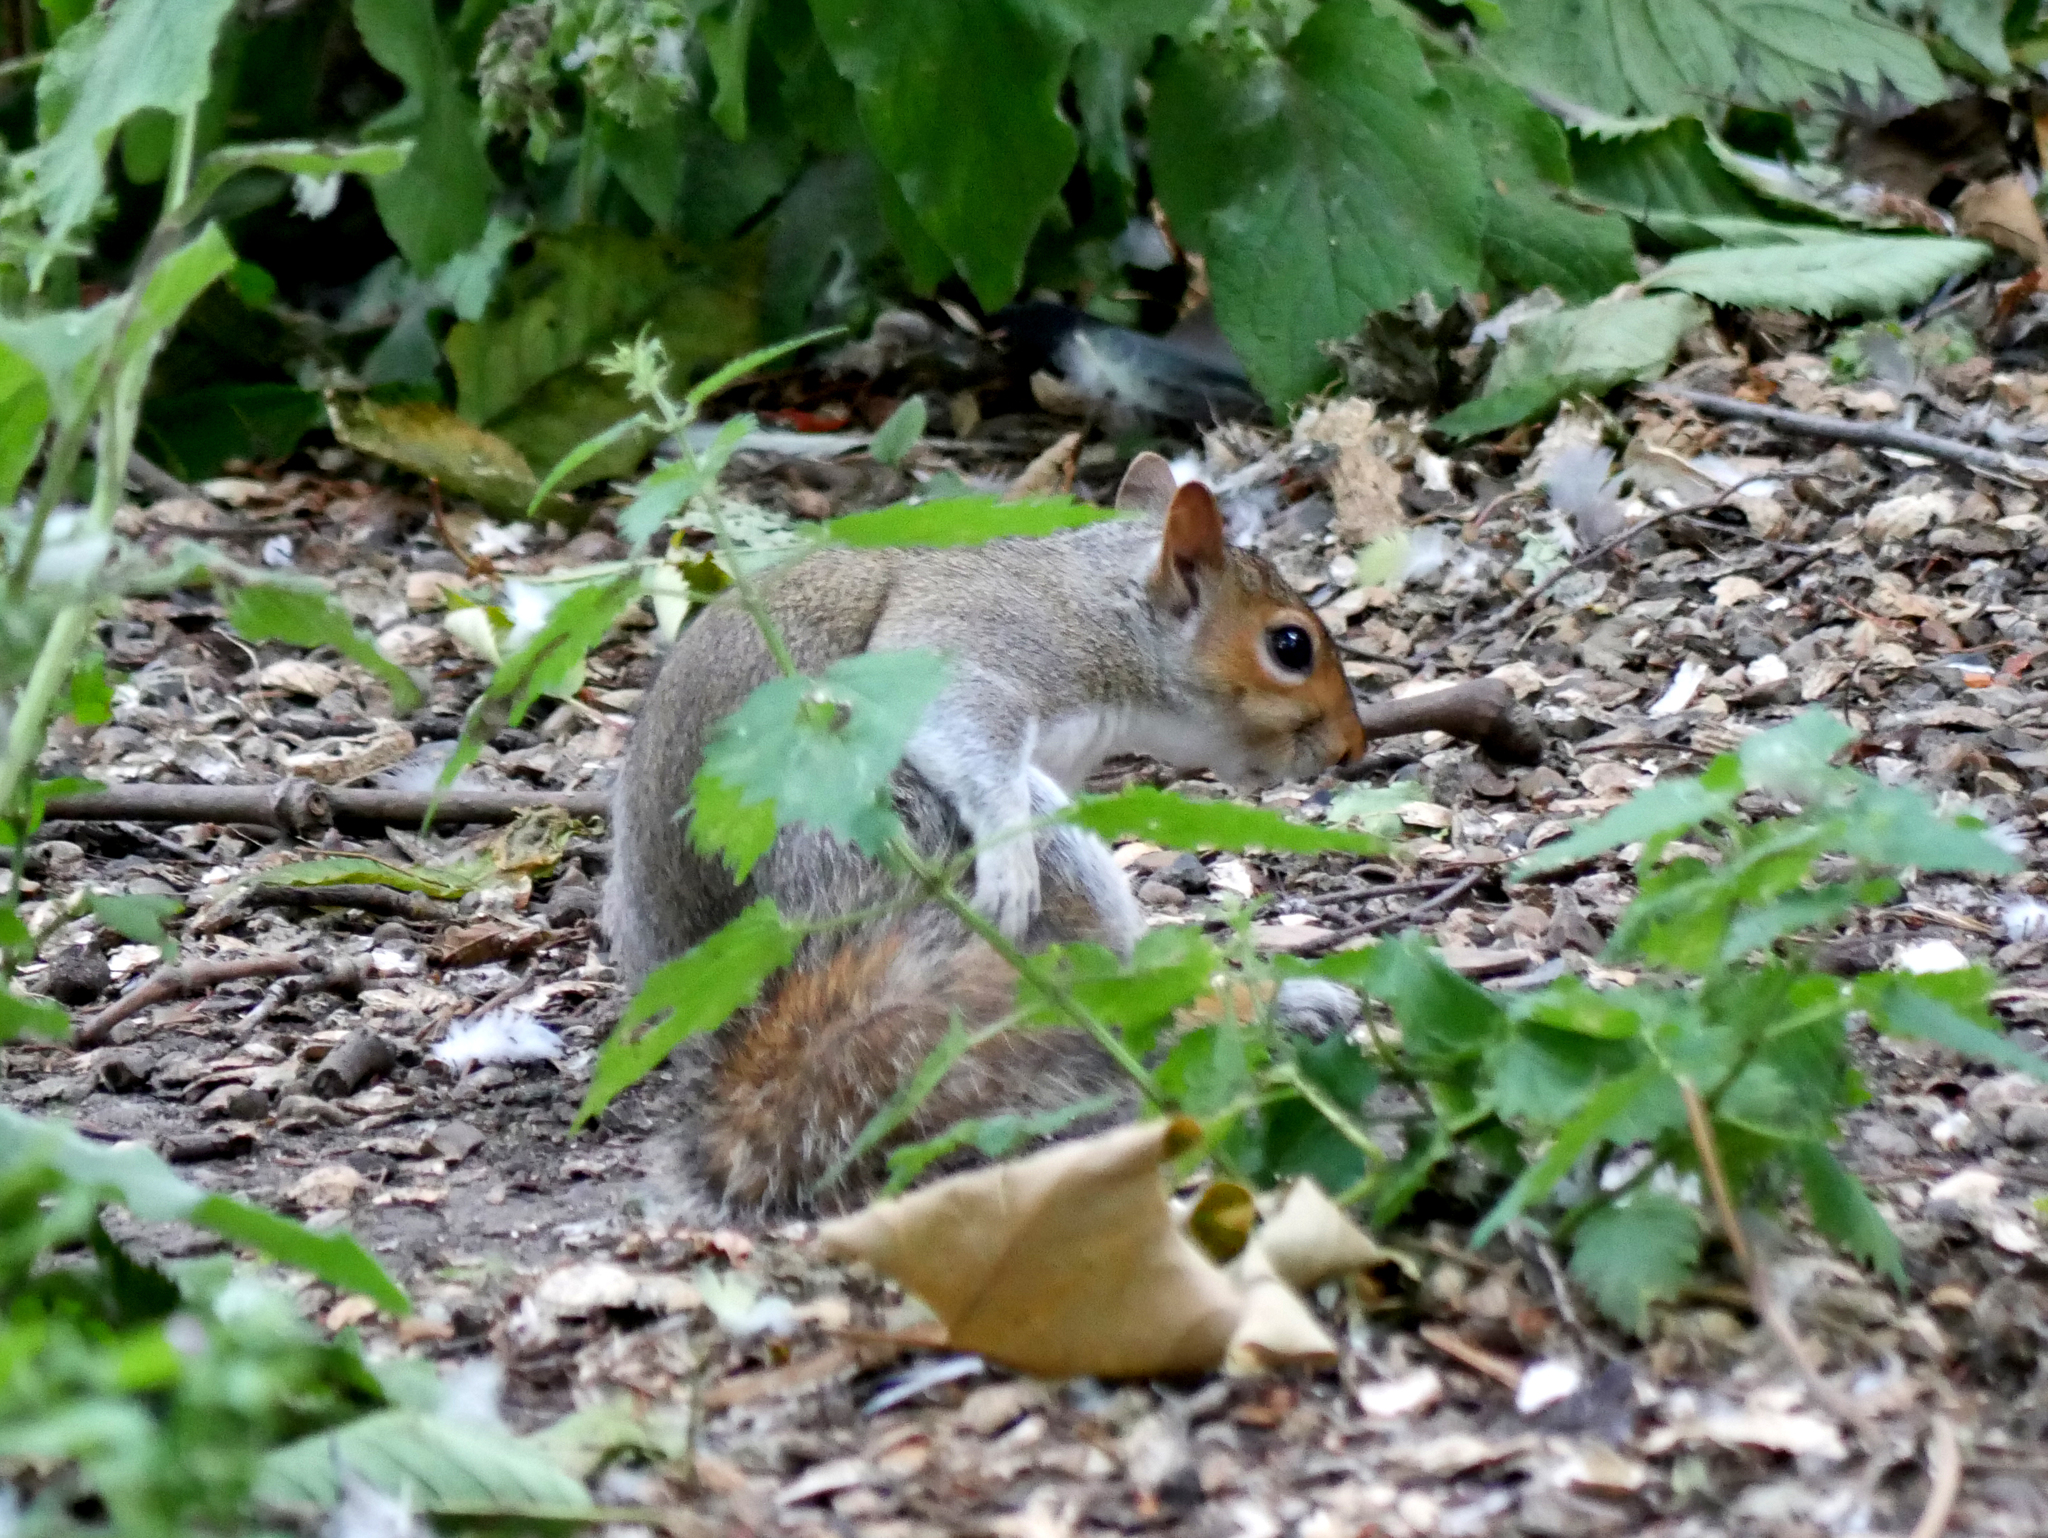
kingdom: Animalia
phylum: Chordata
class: Mammalia
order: Rodentia
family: Sciuridae
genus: Sciurus
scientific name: Sciurus carolinensis
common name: Eastern gray squirrel
